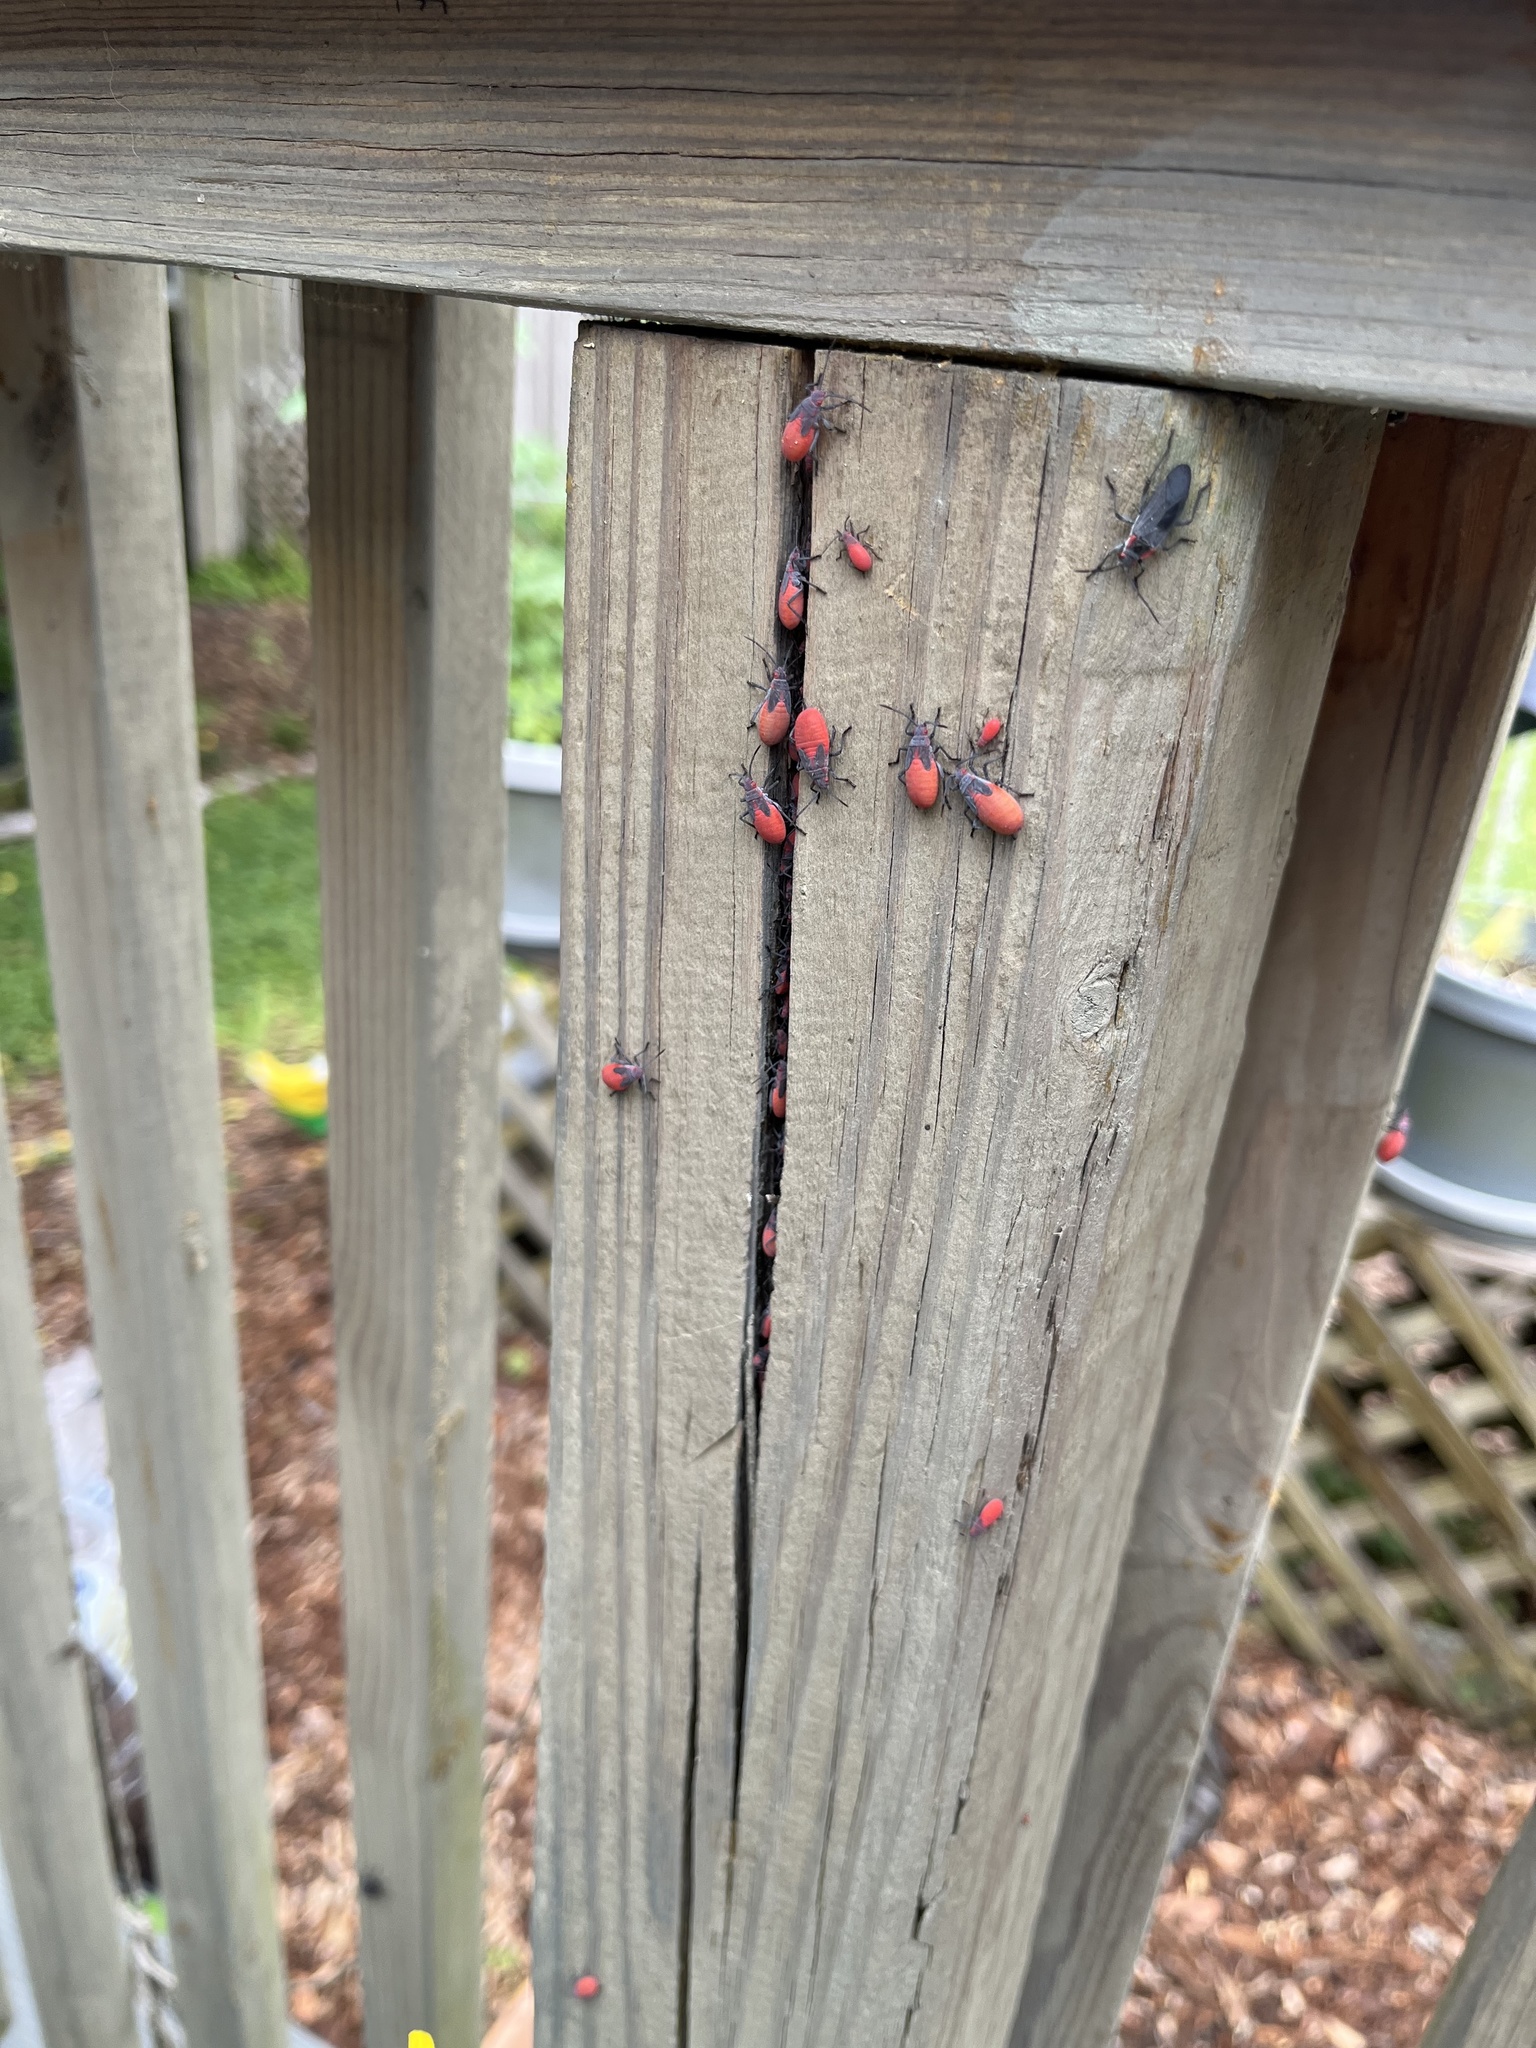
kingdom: Animalia
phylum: Arthropoda
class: Insecta
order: Hemiptera
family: Rhopalidae
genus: Jadera
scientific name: Jadera haematoloma
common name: Red-shouldered bug
